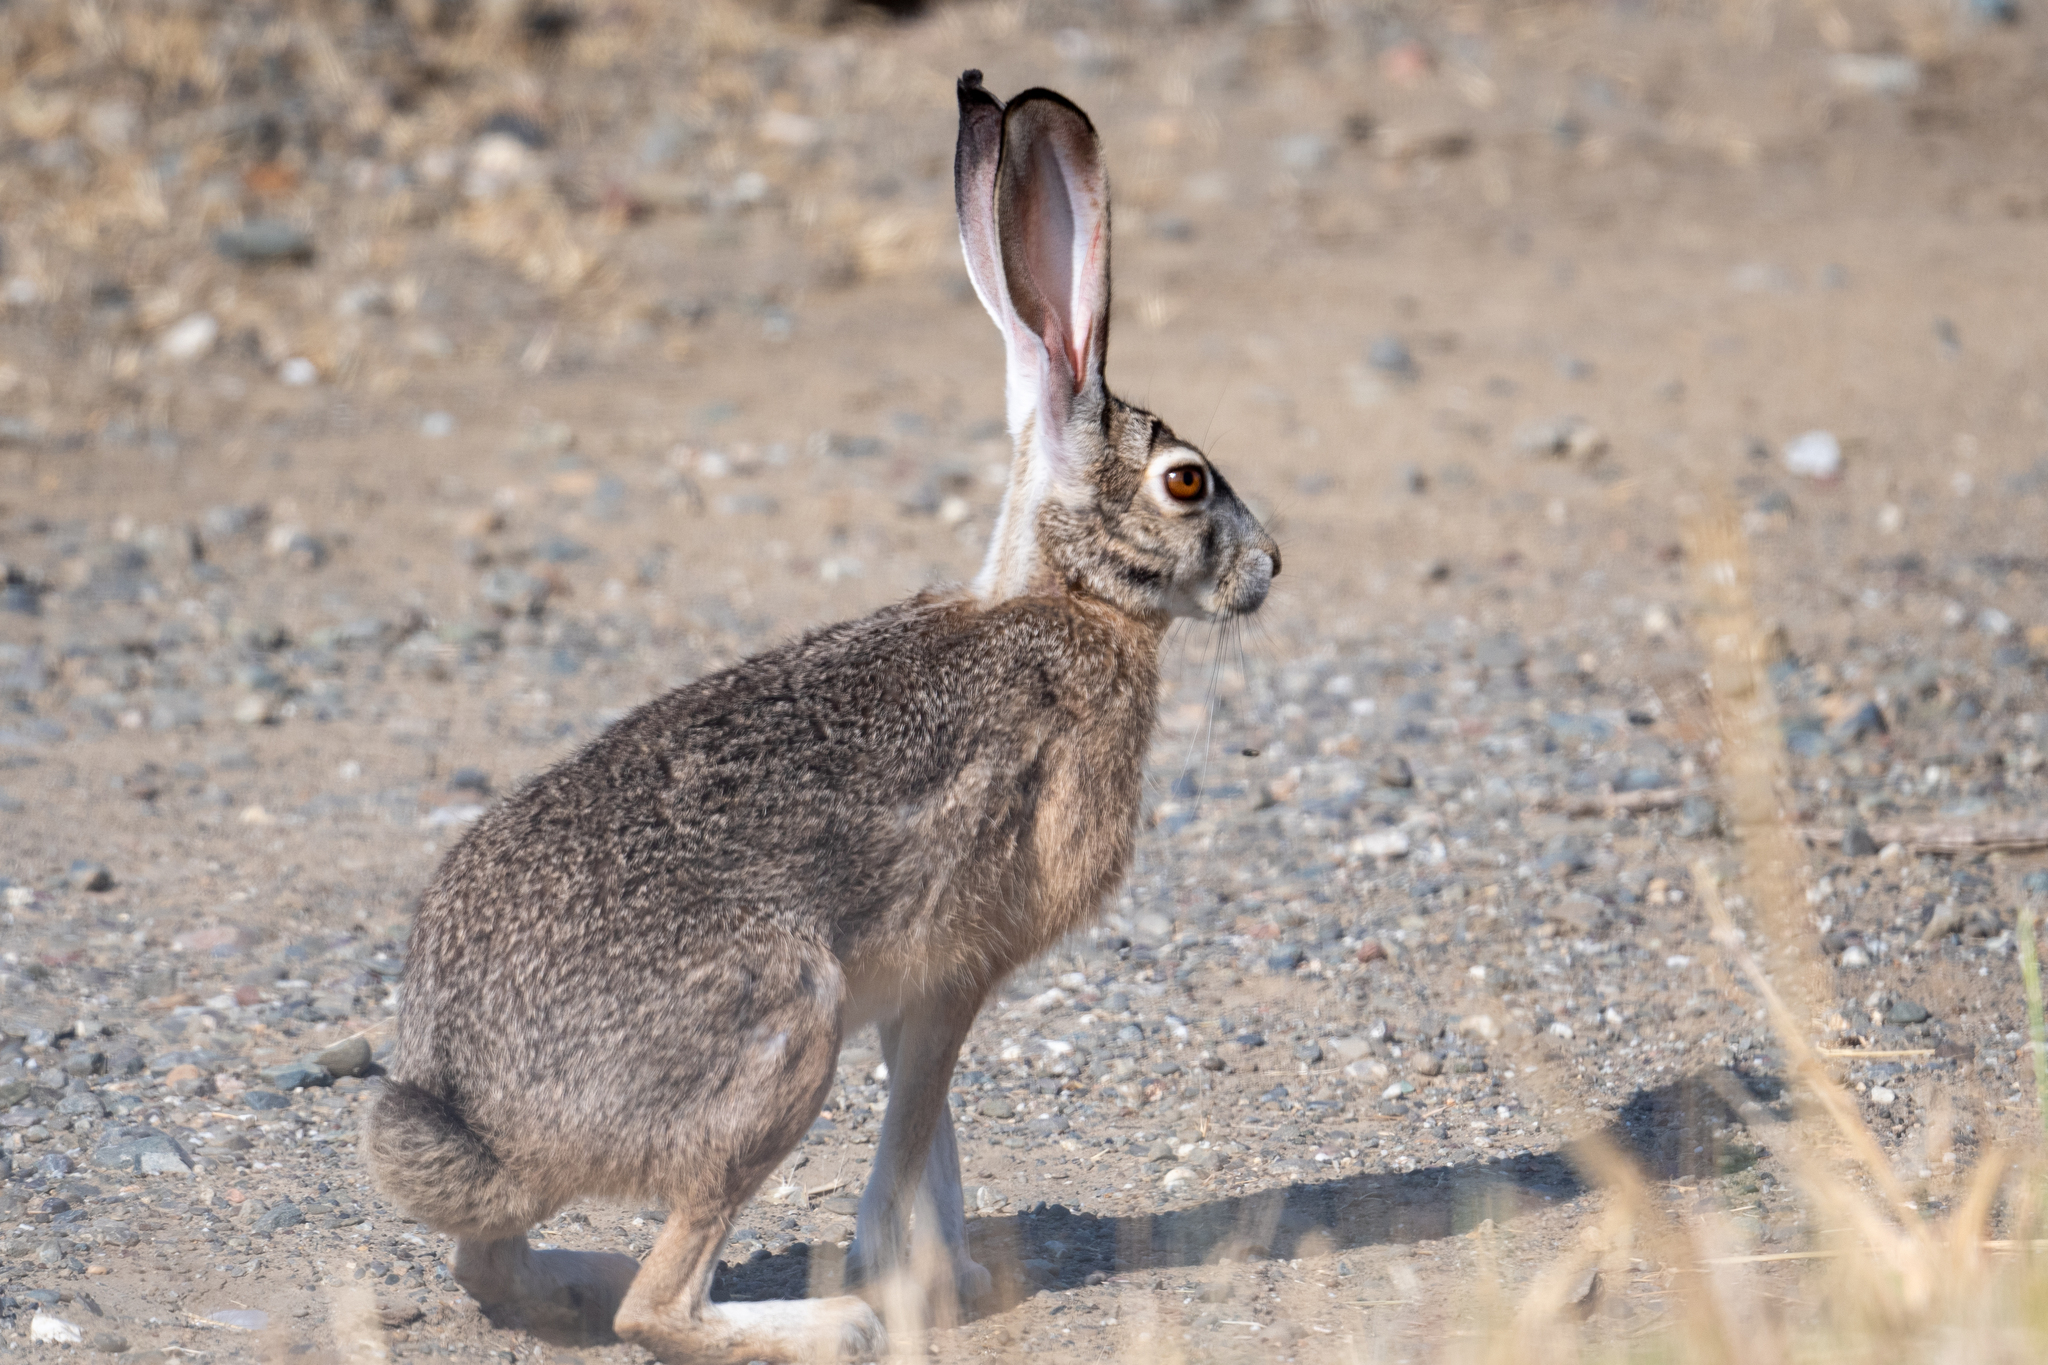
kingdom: Animalia
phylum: Chordata
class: Mammalia
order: Lagomorpha
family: Leporidae
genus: Lepus
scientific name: Lepus californicus
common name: Black-tailed jackrabbit
